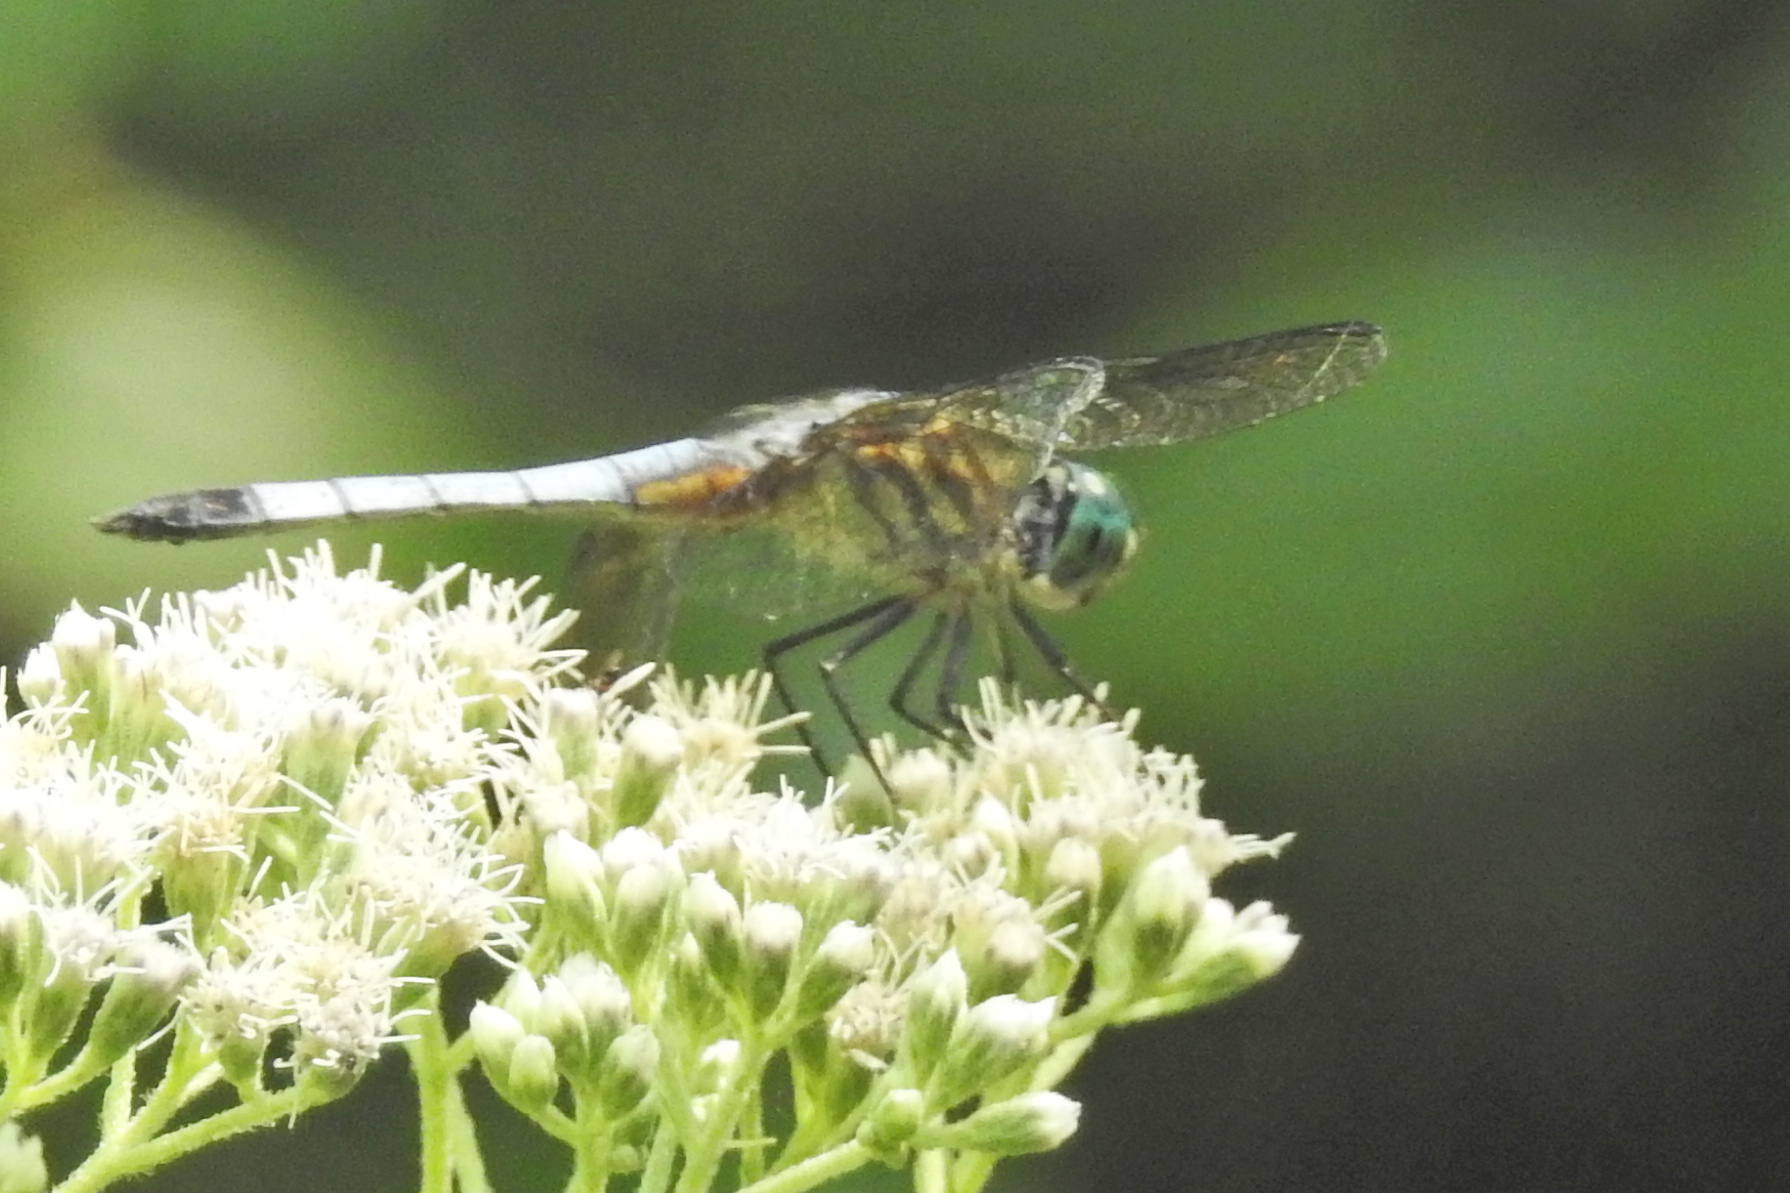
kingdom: Animalia
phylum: Arthropoda
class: Insecta
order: Odonata
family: Libellulidae
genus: Pachydiplax
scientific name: Pachydiplax longipennis
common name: Blue dasher
